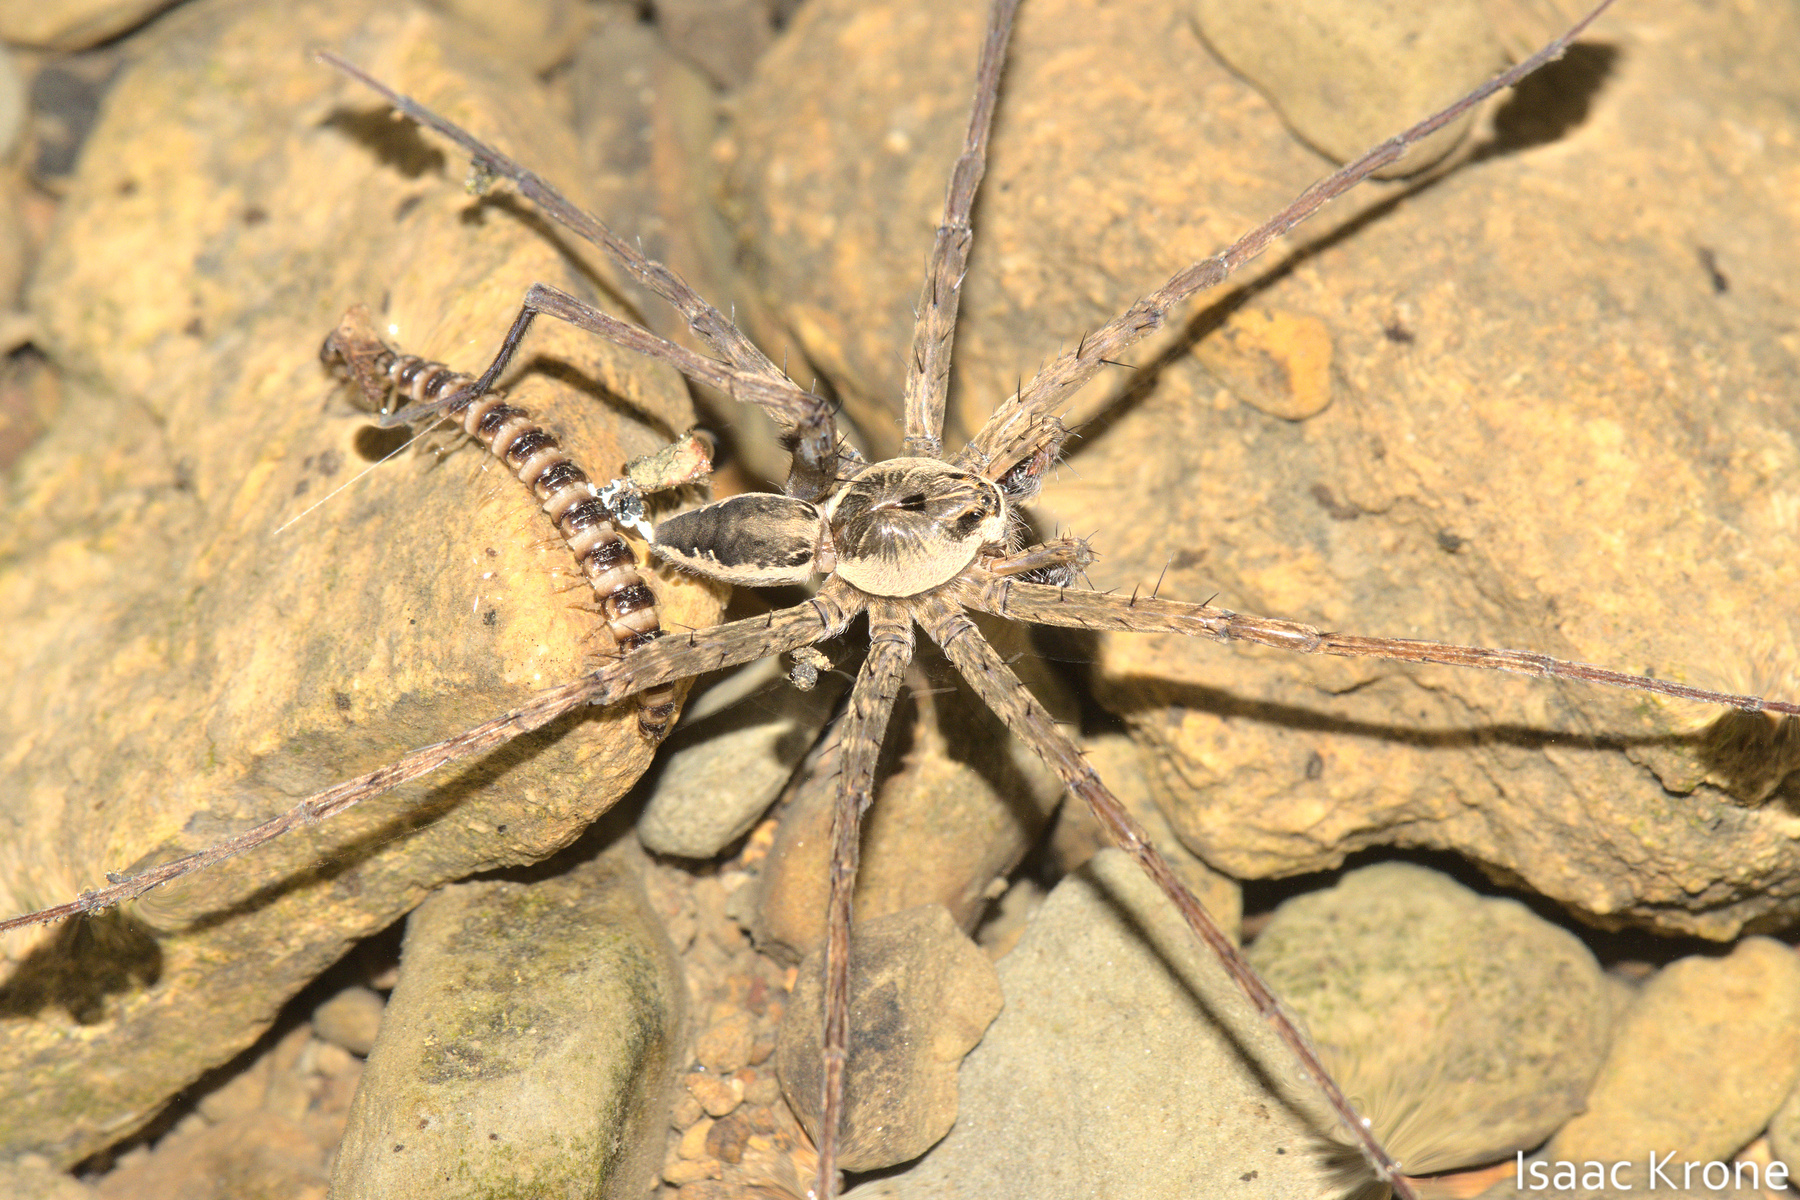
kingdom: Animalia
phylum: Arthropoda
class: Arachnida
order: Araneae
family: Pisauridae
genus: Dolomedes
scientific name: Dolomedes vittatus
